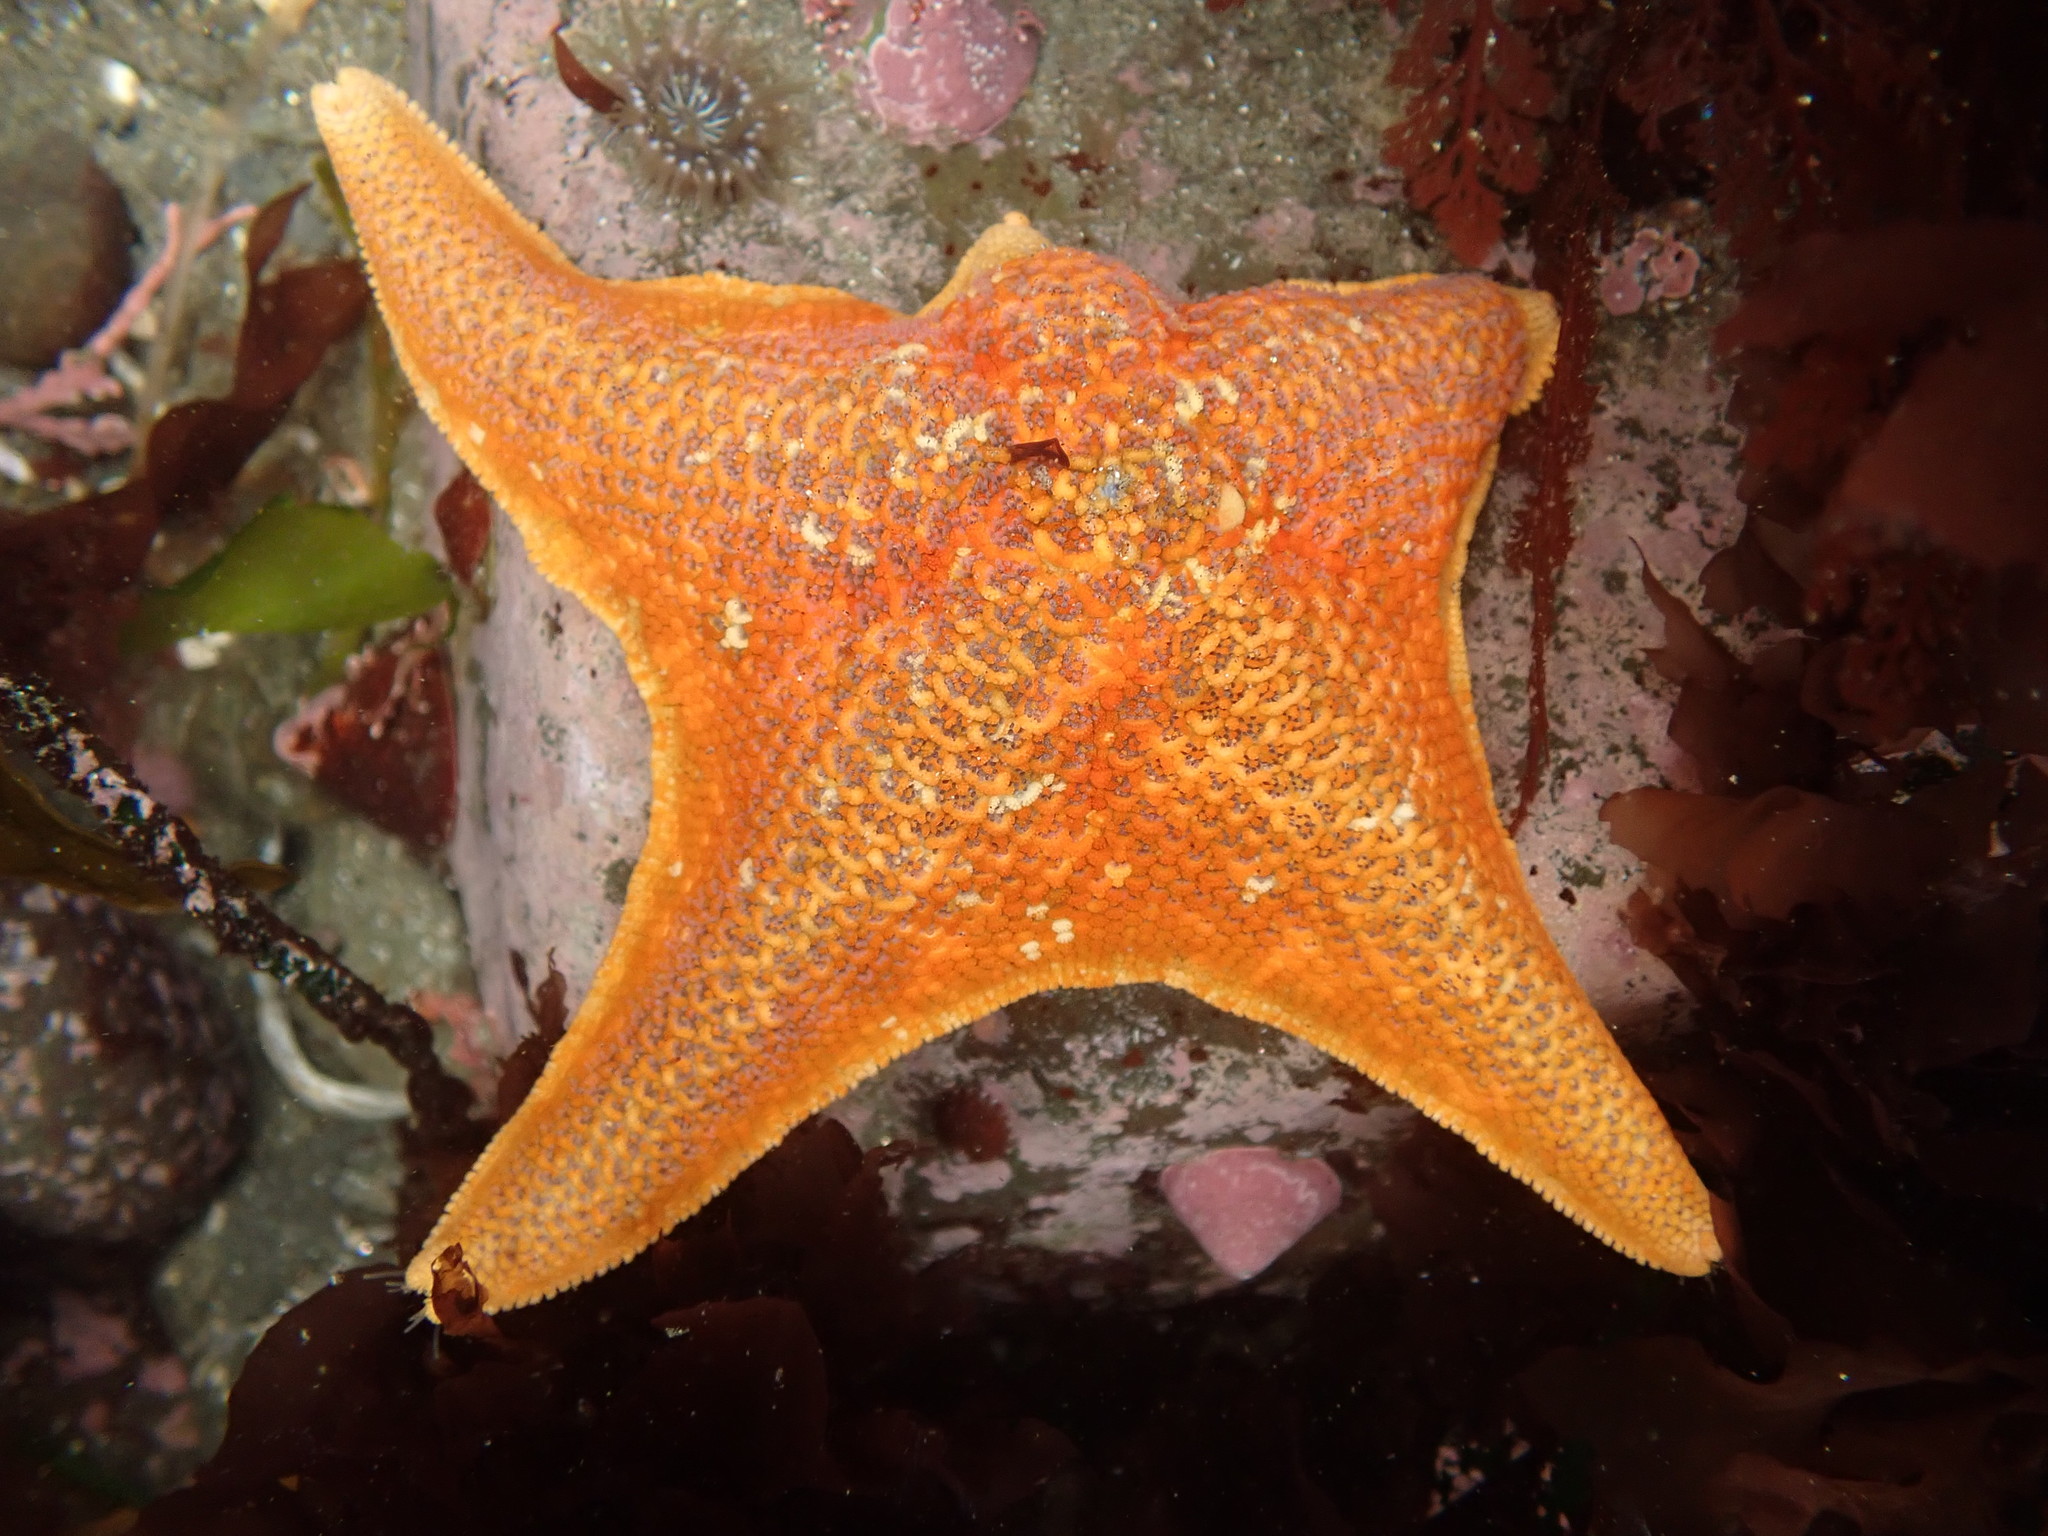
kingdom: Animalia
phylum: Echinodermata
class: Asteroidea
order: Valvatida
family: Asterinidae
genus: Patiria
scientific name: Patiria miniata
